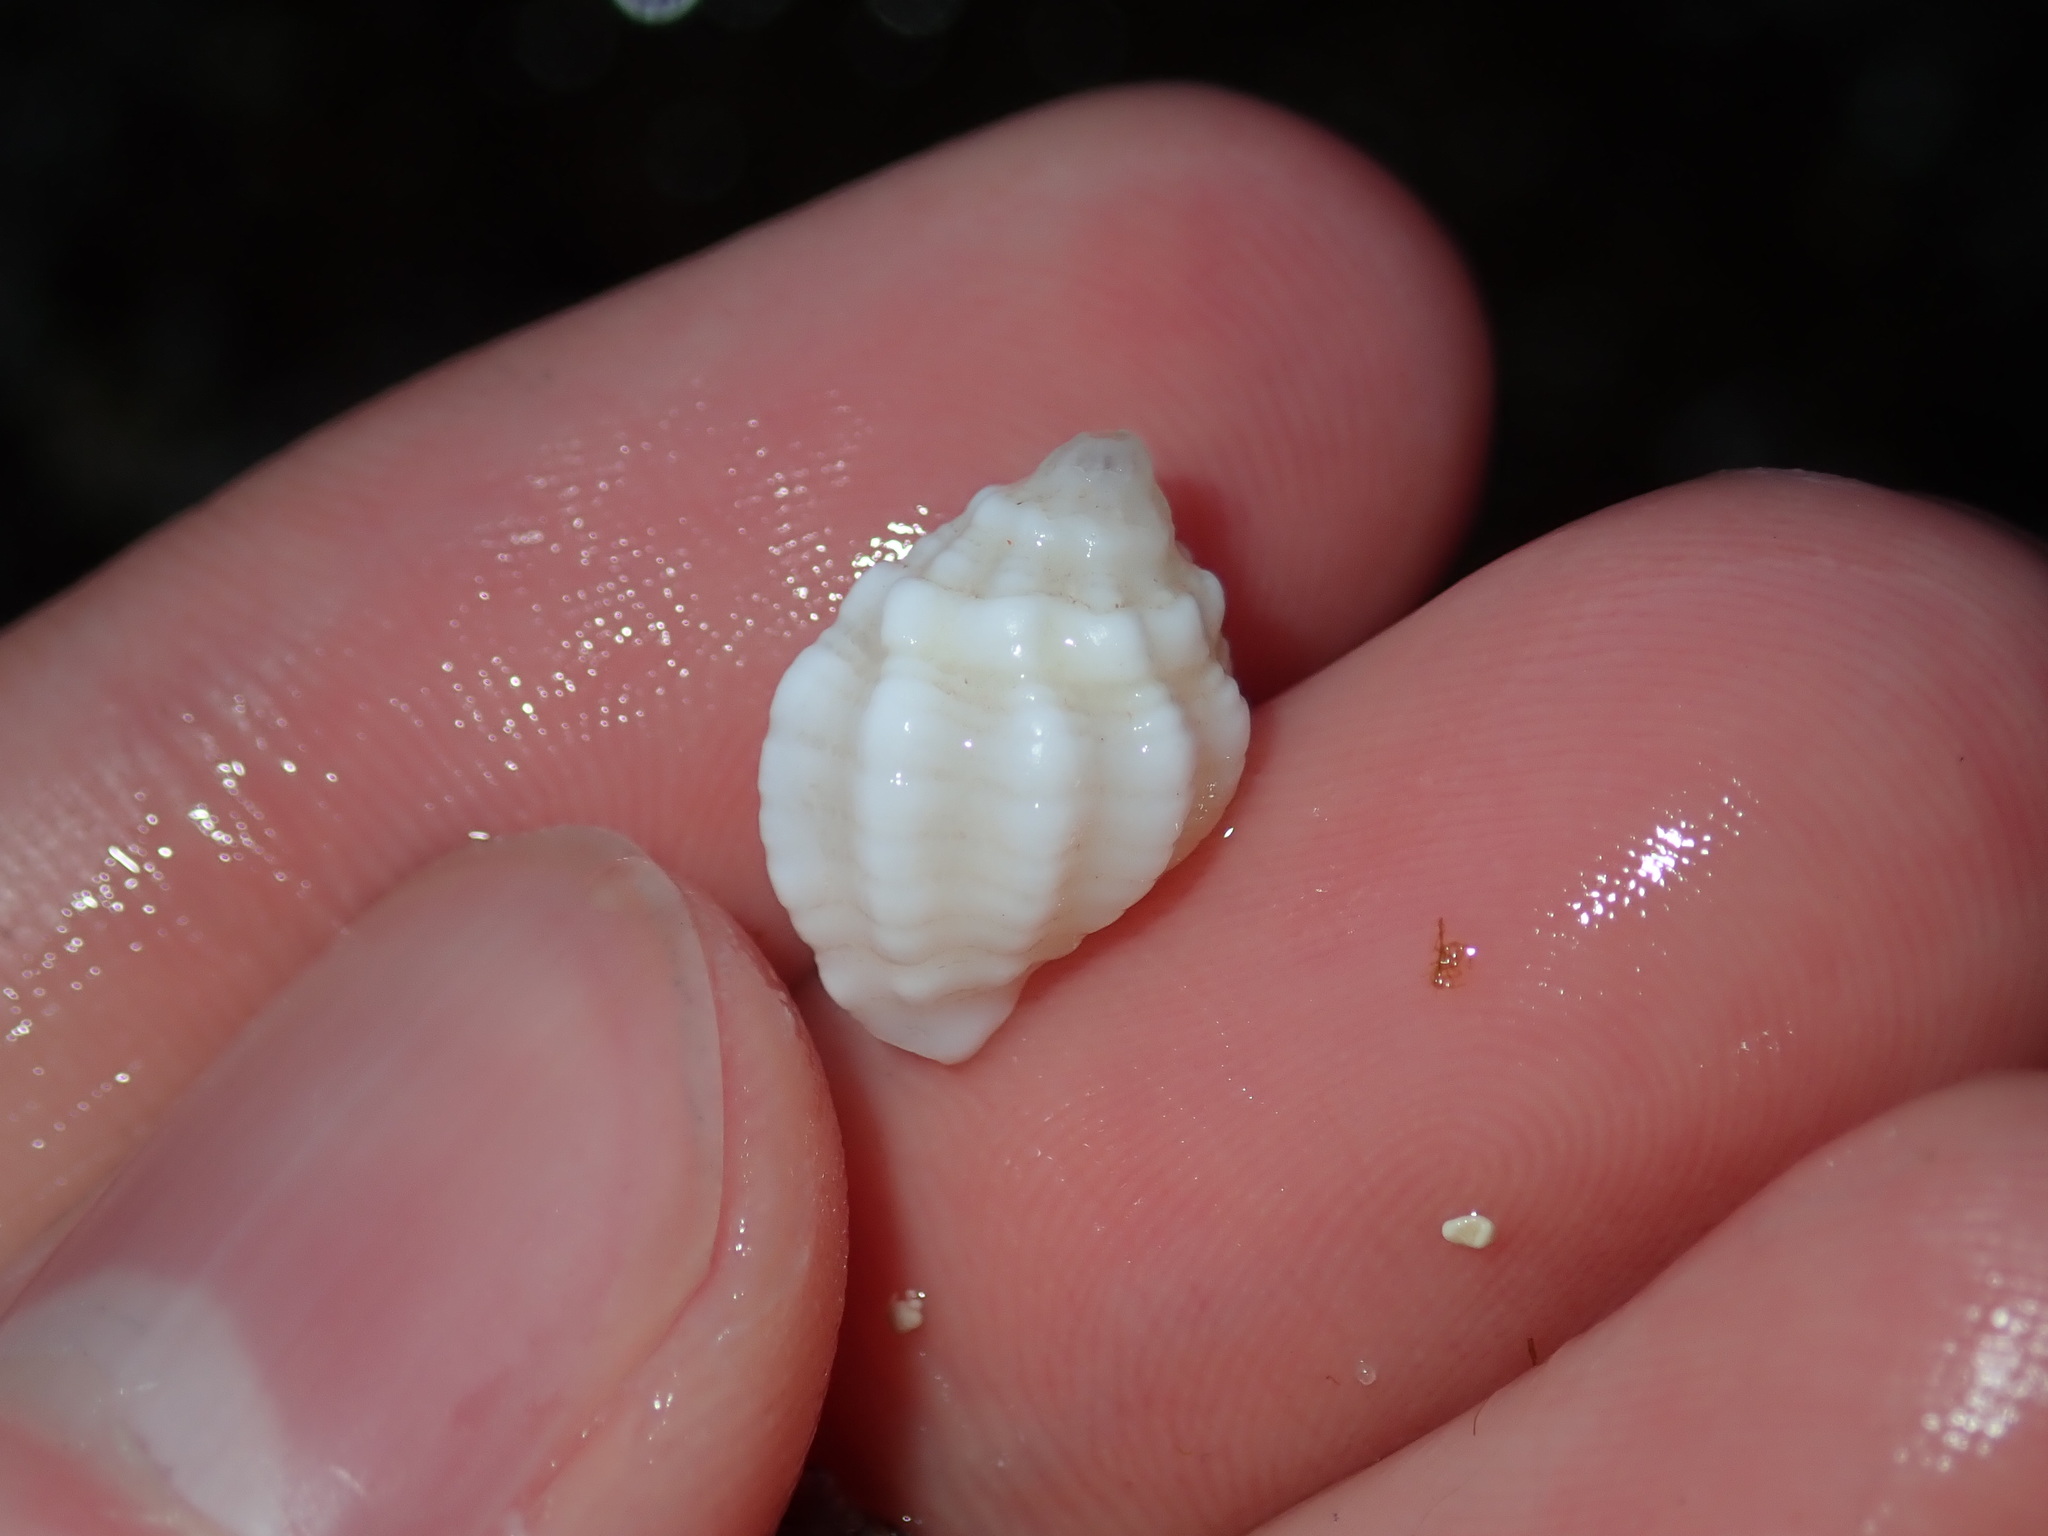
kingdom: Animalia
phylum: Mollusca
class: Gastropoda
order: Neogastropoda
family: Muricidae
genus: Oppomorus
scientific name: Oppomorus noduliferus
